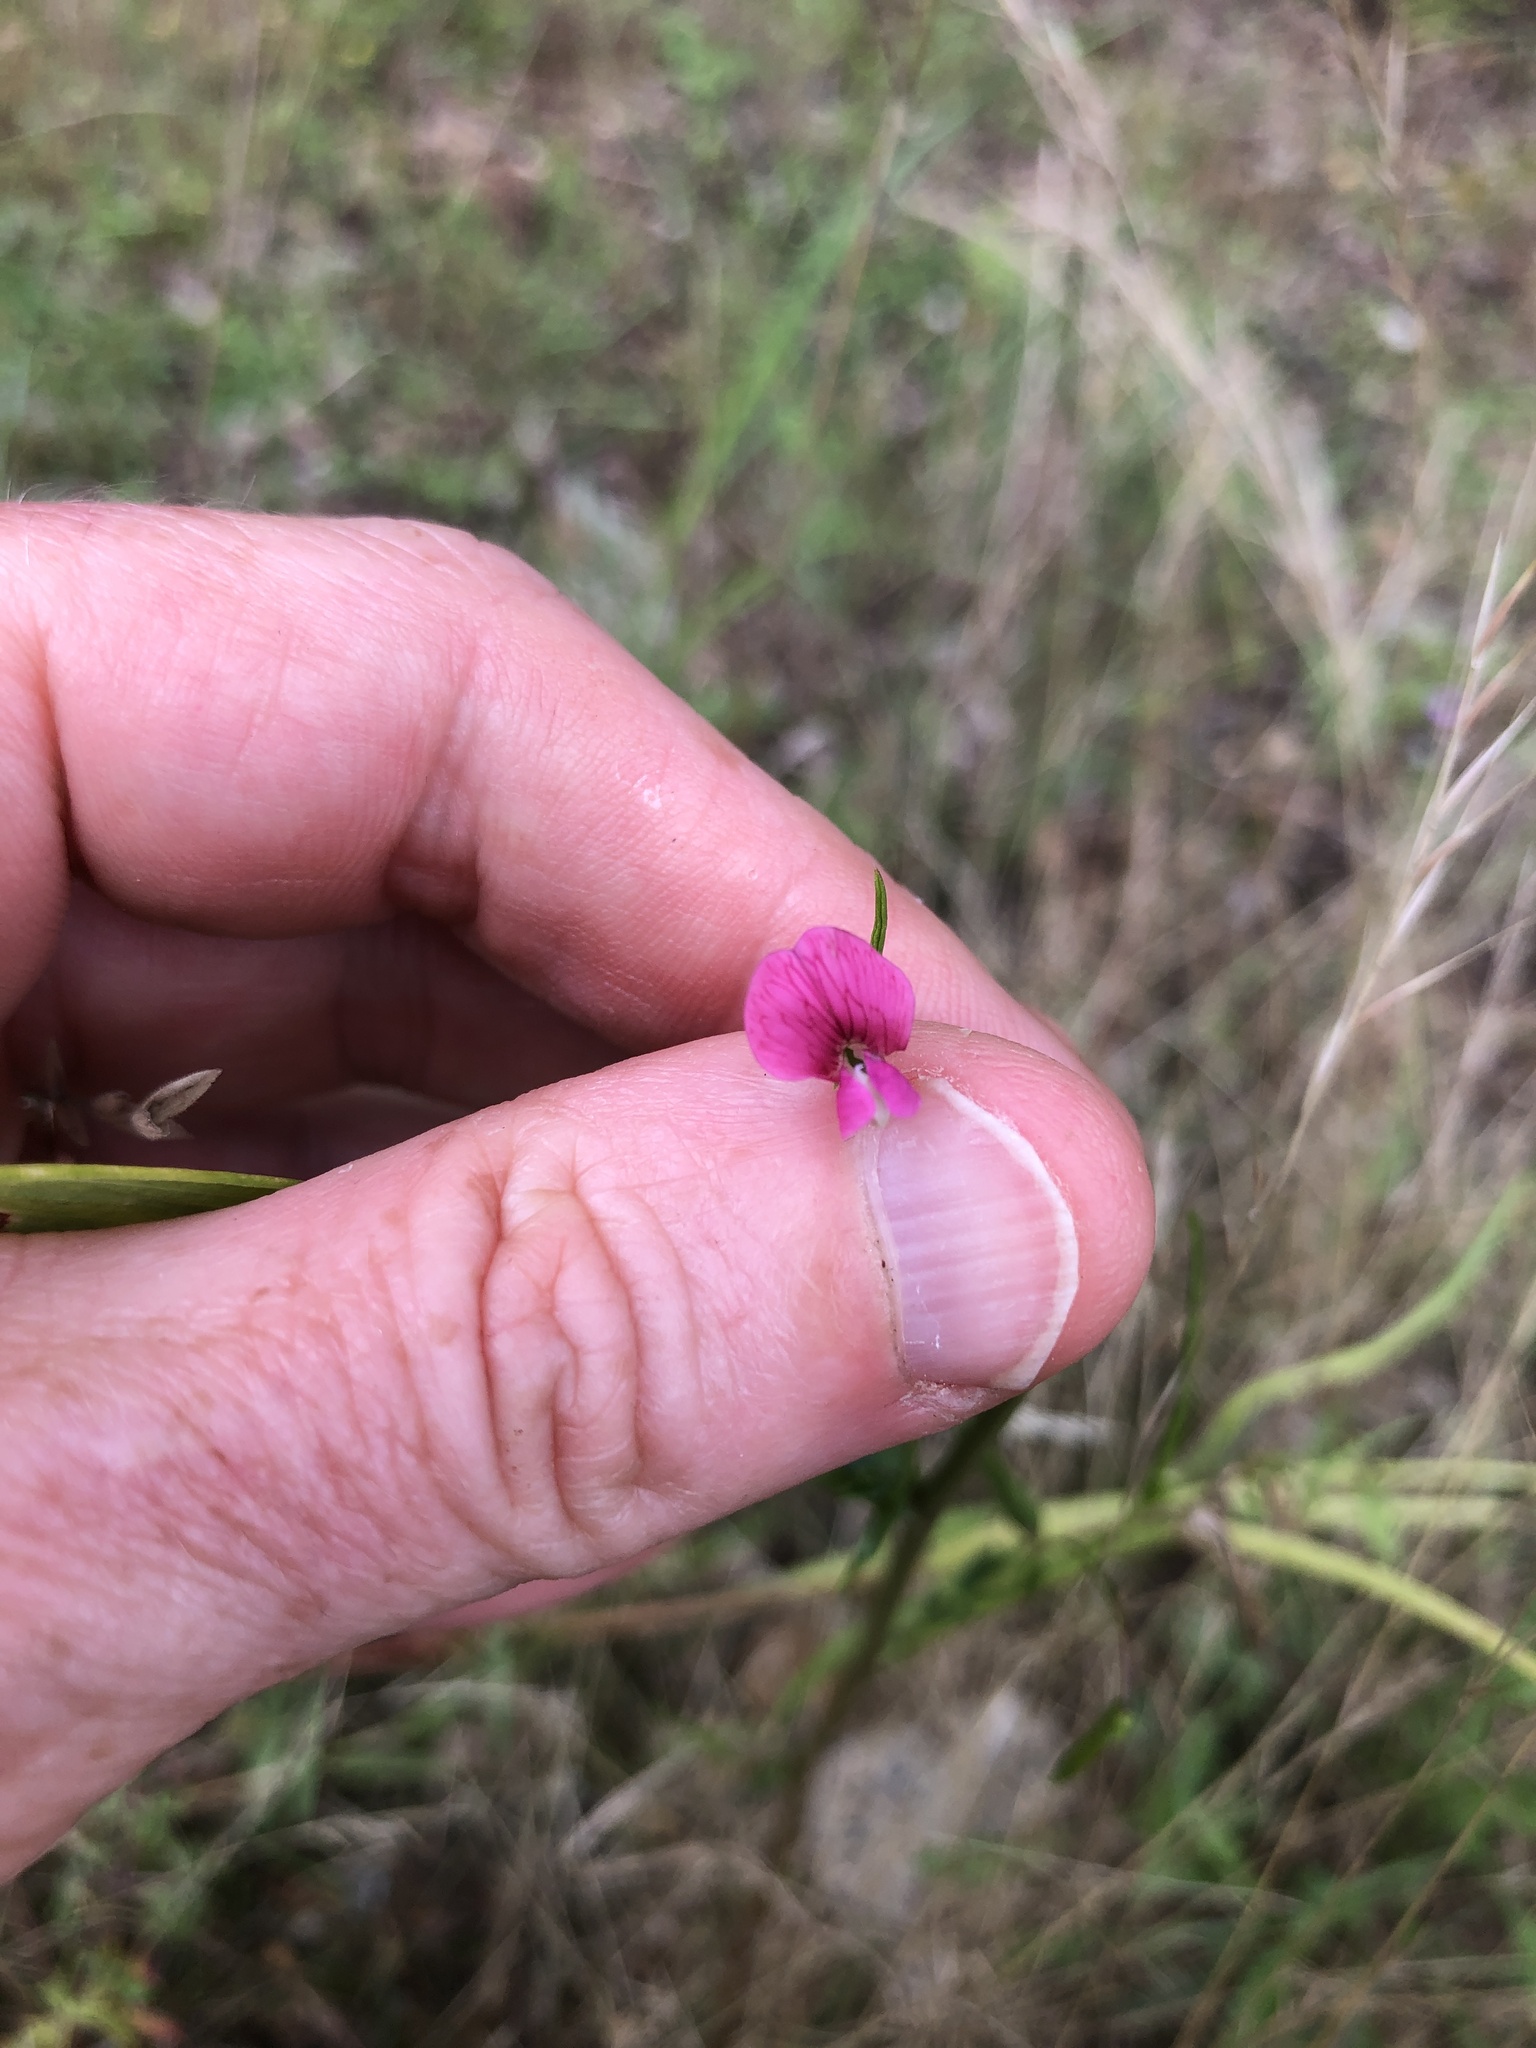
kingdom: Plantae
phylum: Tracheophyta
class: Magnoliopsida
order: Fabales
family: Fabaceae
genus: Lathyrus
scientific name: Lathyrus nissolia
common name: Grass vetchling
